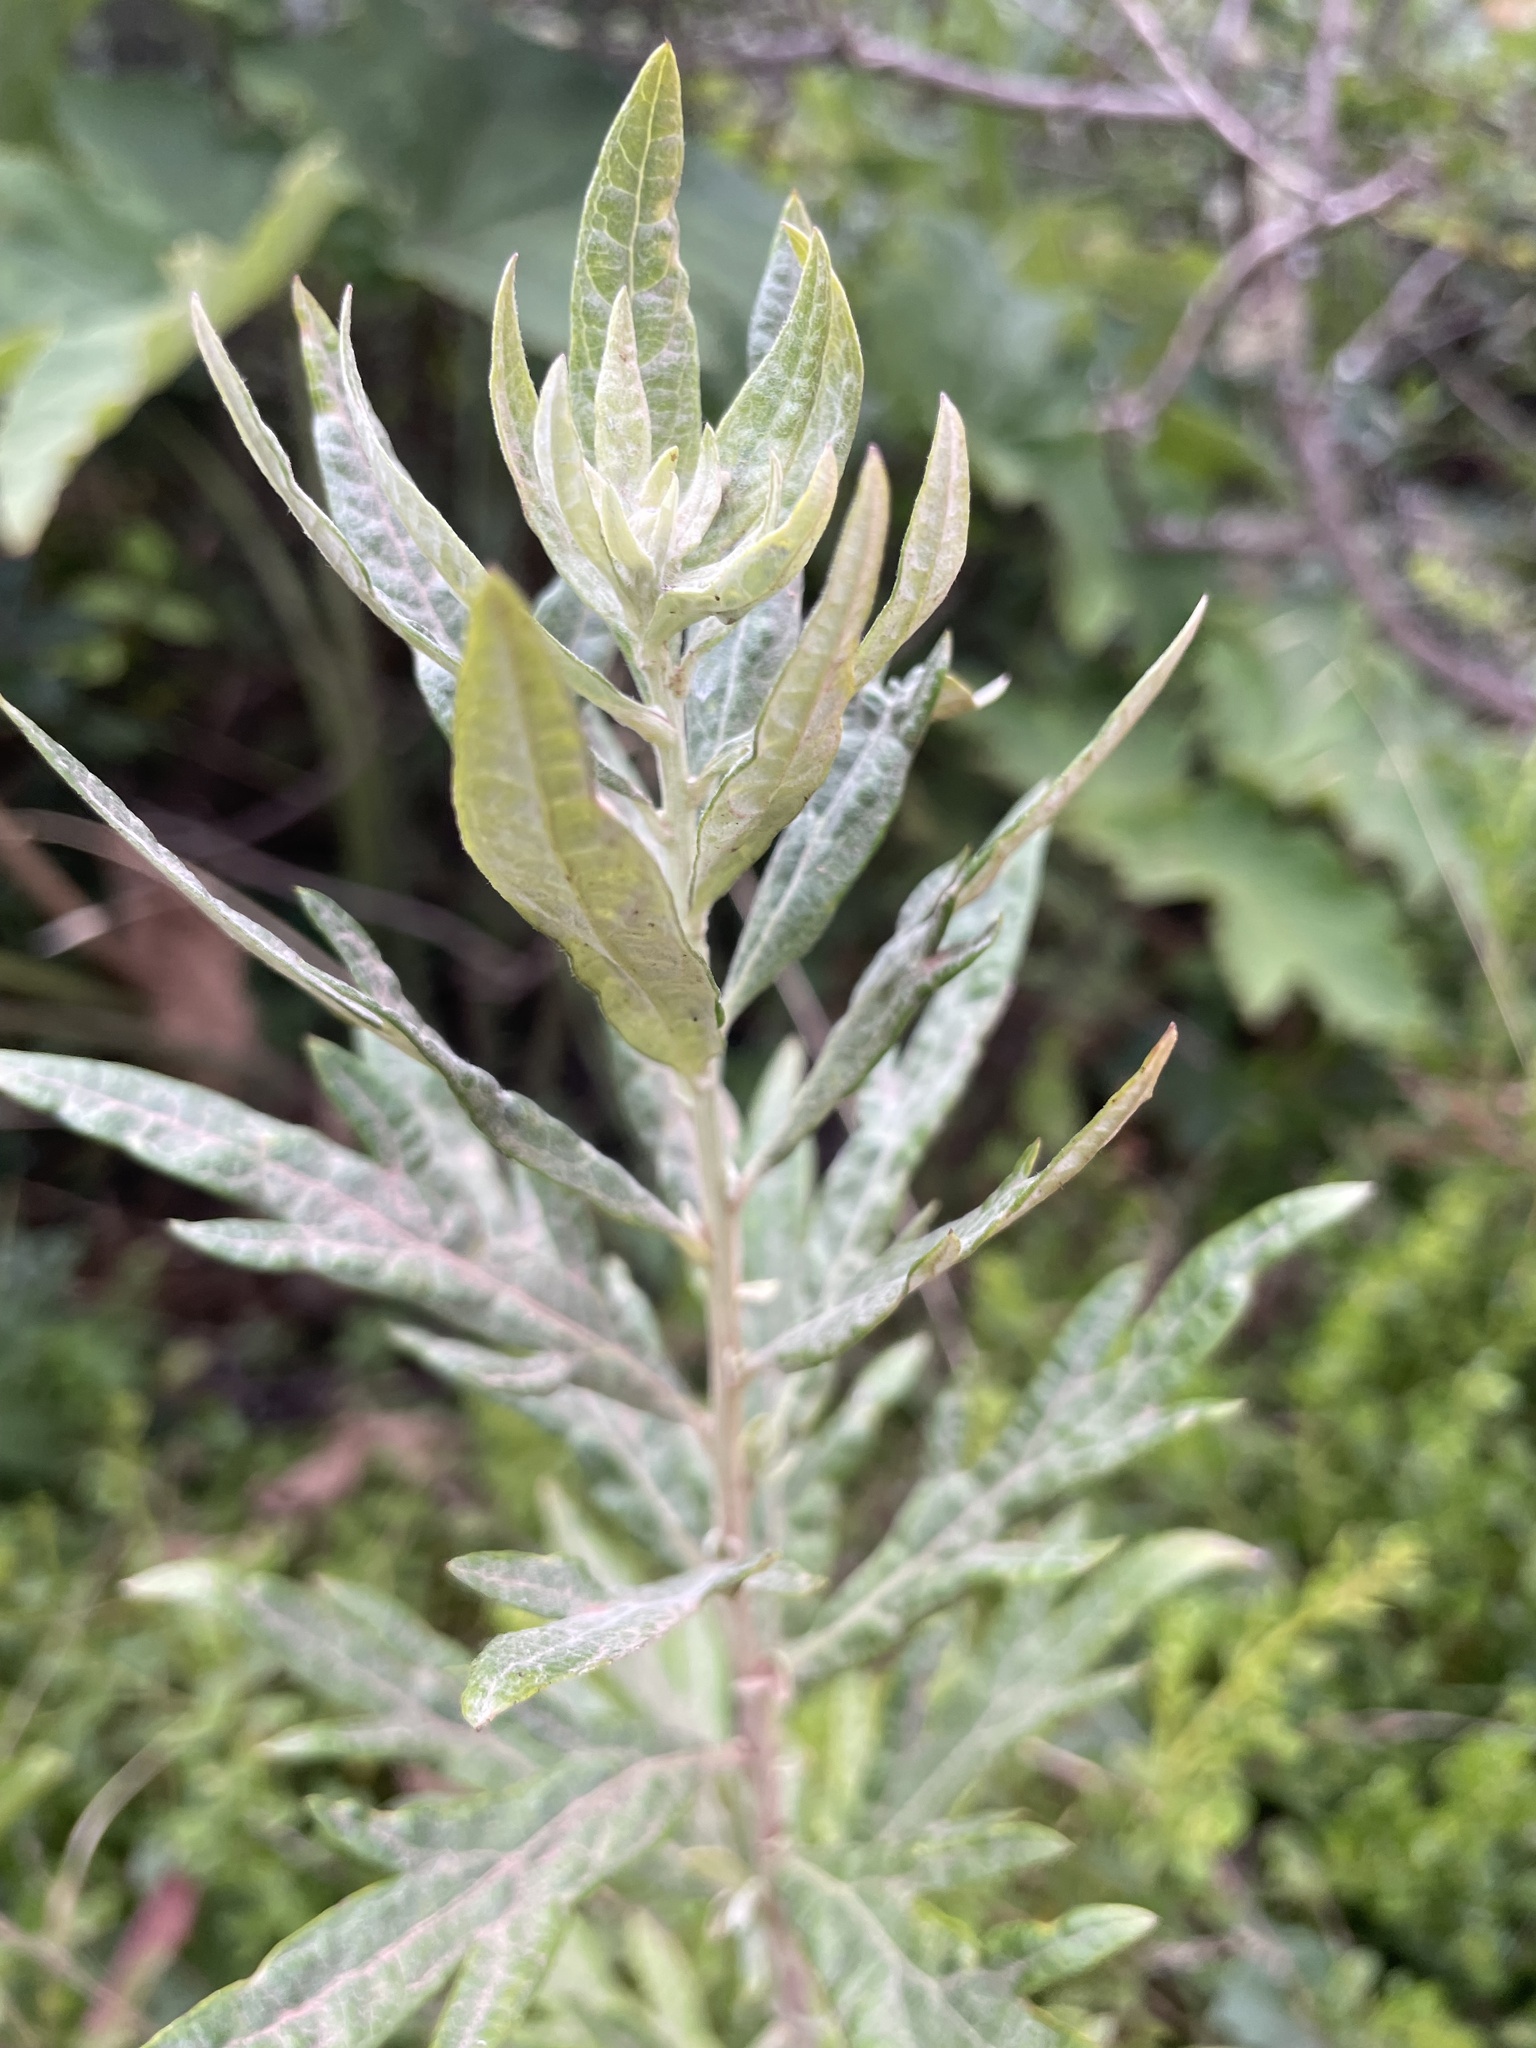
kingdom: Plantae
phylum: Tracheophyta
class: Magnoliopsida
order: Asterales
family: Asteraceae
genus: Artemisia
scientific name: Artemisia douglasiana
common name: Northwest mugwort
